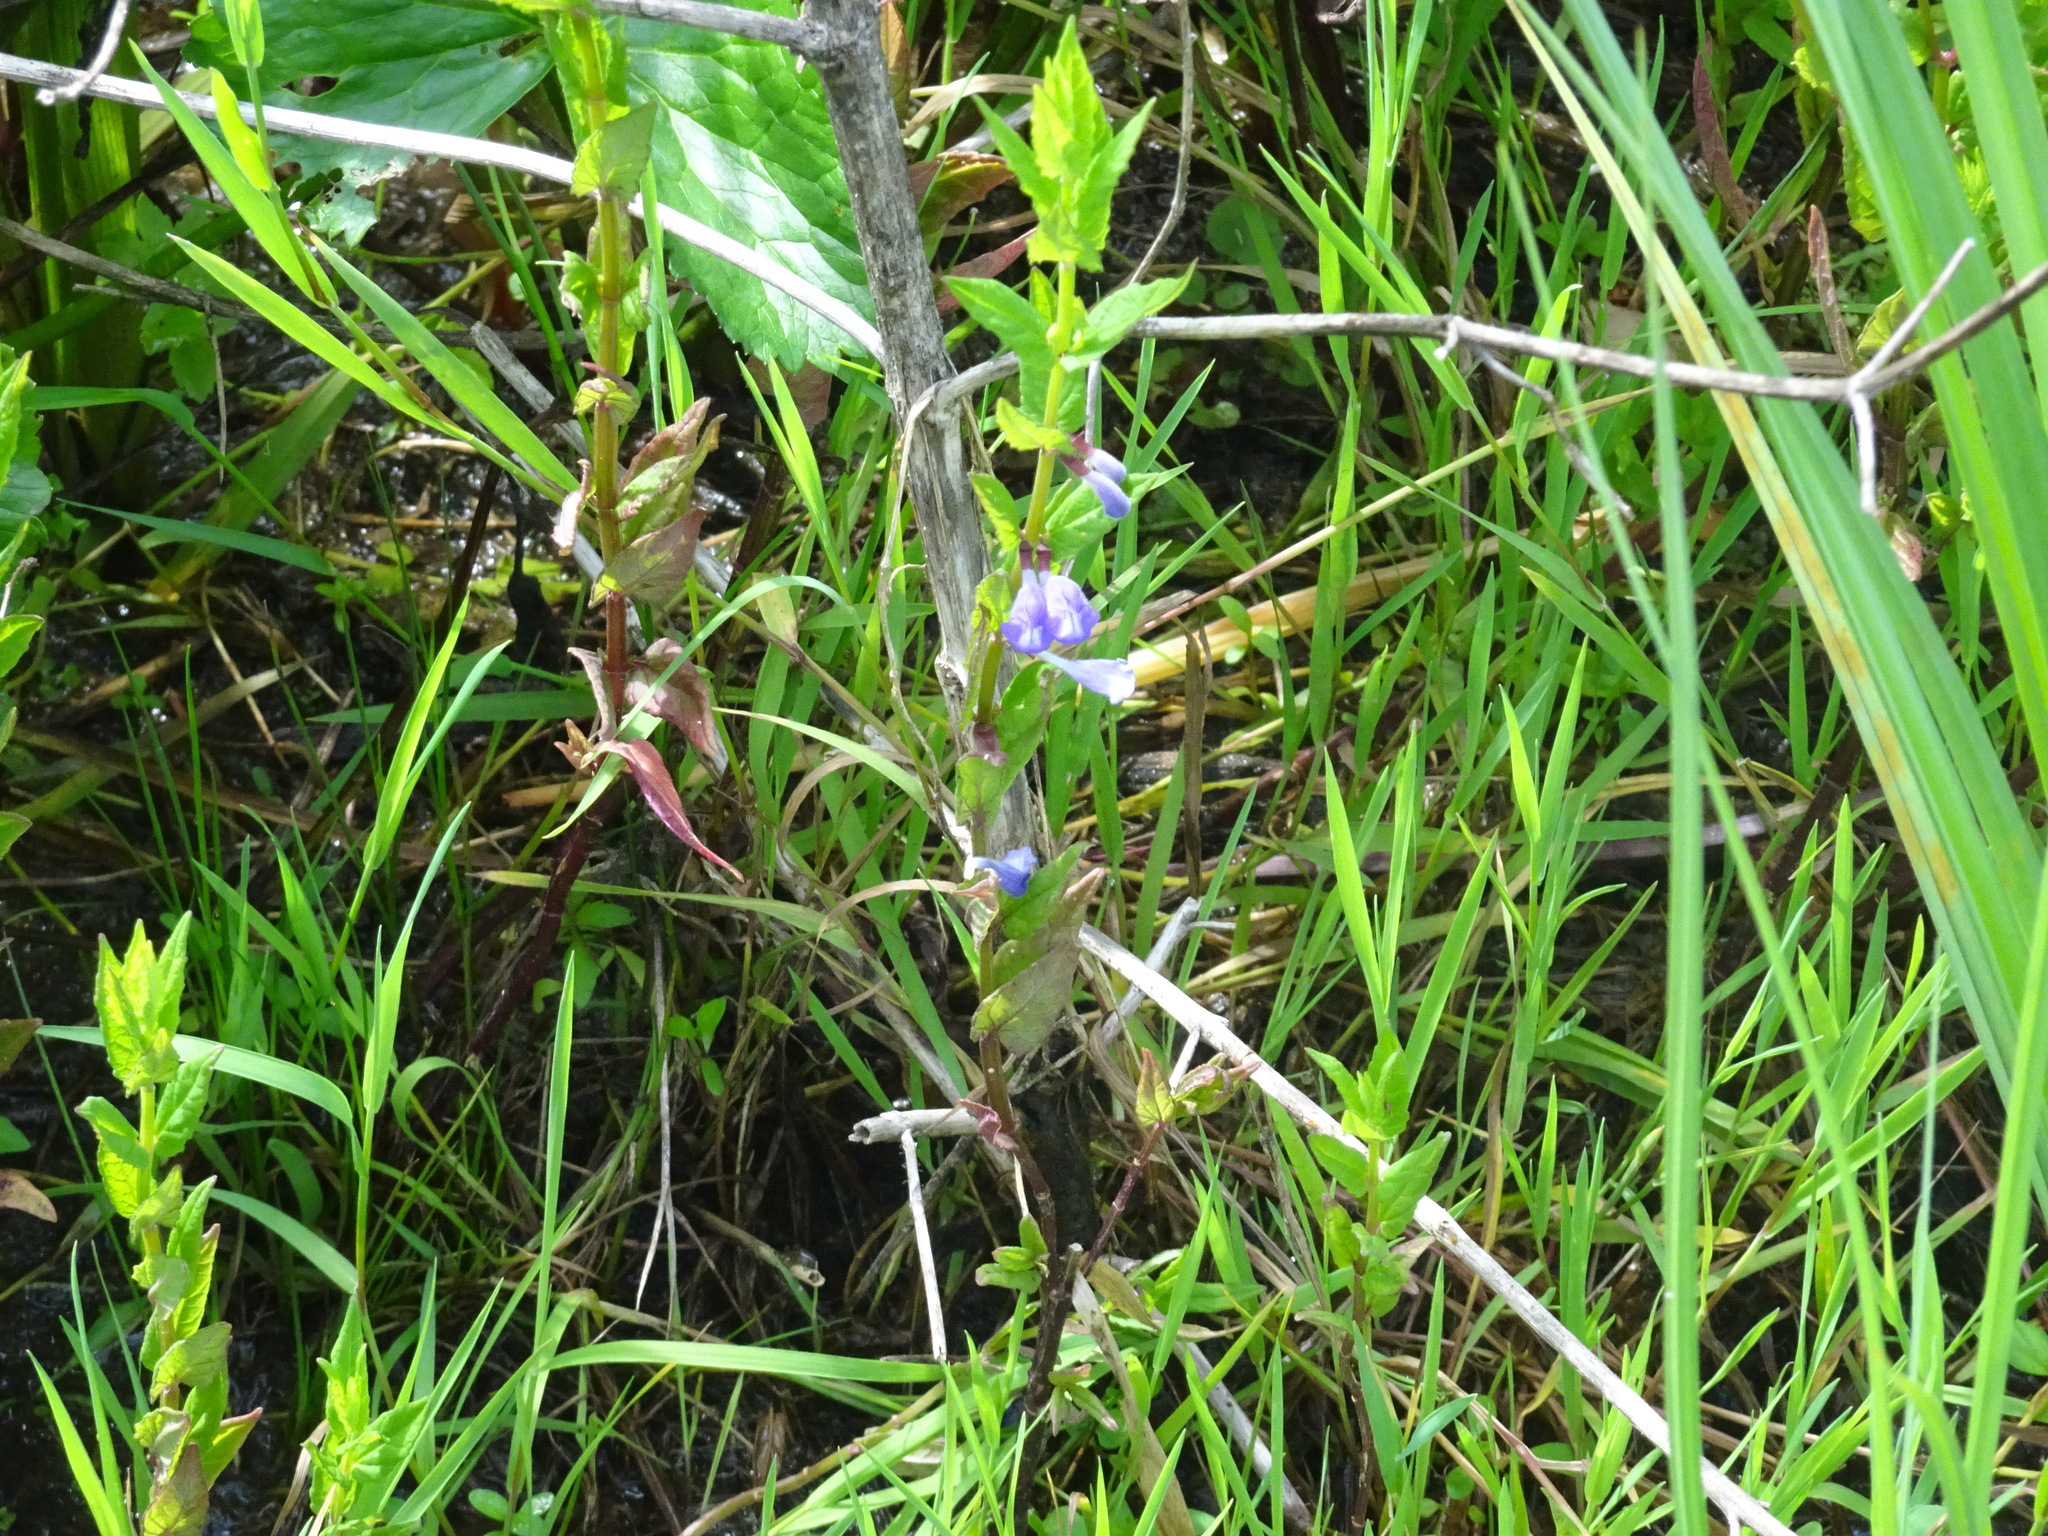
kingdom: Plantae
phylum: Tracheophyta
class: Magnoliopsida
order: Lamiales
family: Lamiaceae
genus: Scutellaria
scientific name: Scutellaria galericulata
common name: Skullcap
